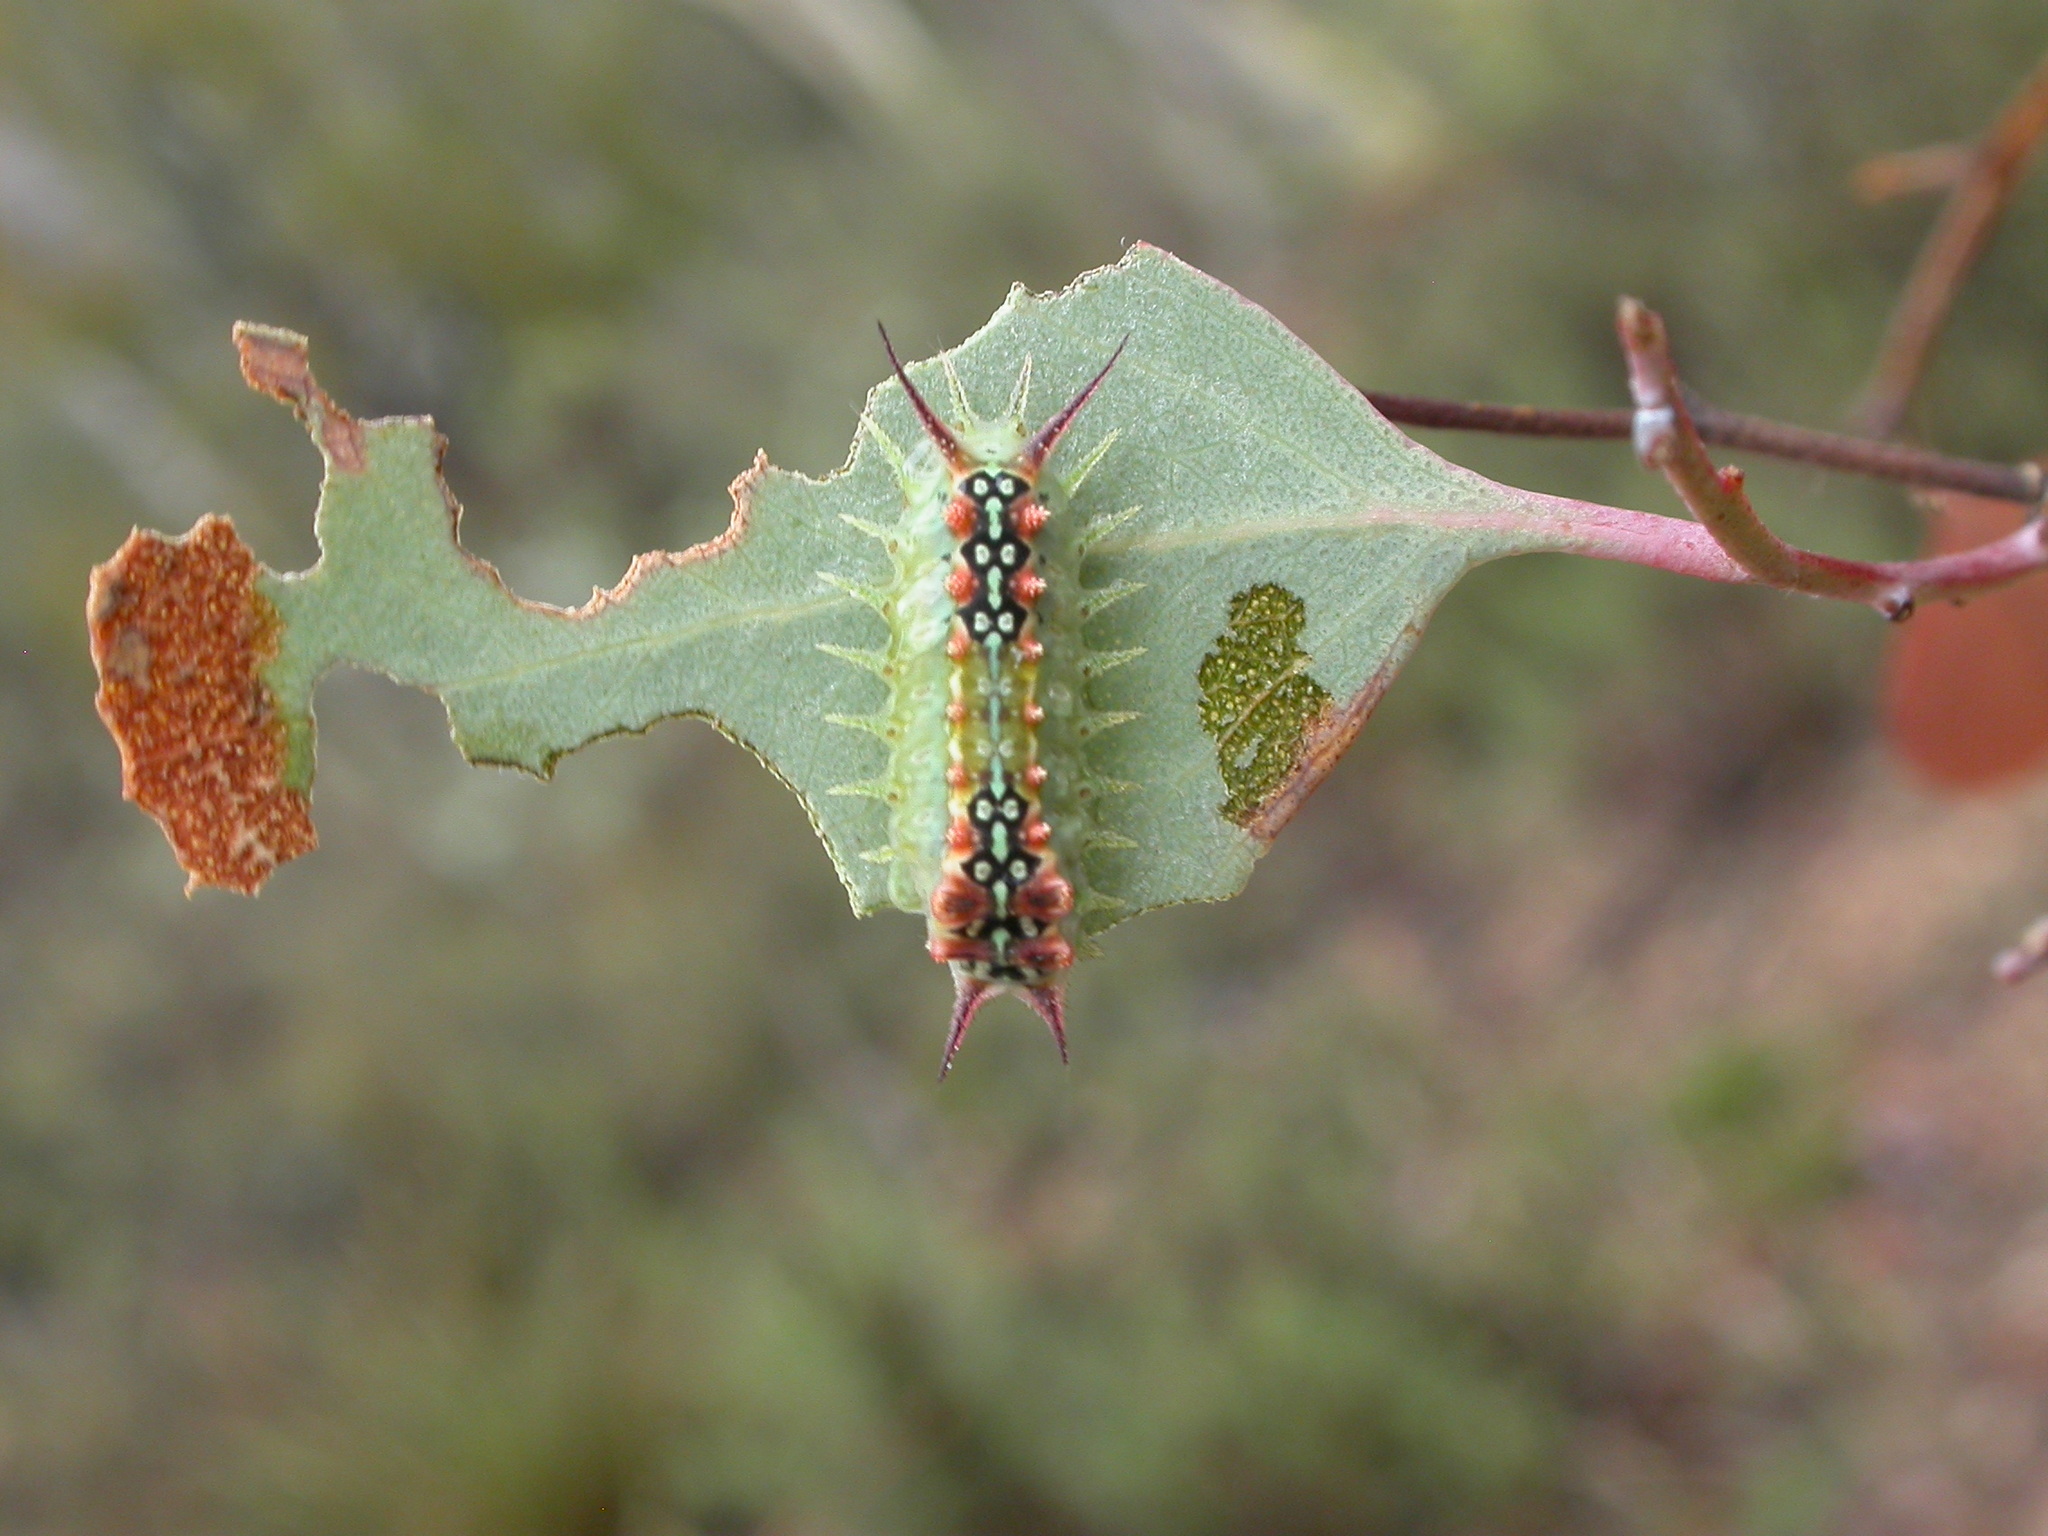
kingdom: Animalia
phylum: Arthropoda
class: Insecta
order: Lepidoptera
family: Limacodidae
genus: Doratifera
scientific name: Doratifera quadriguttata
